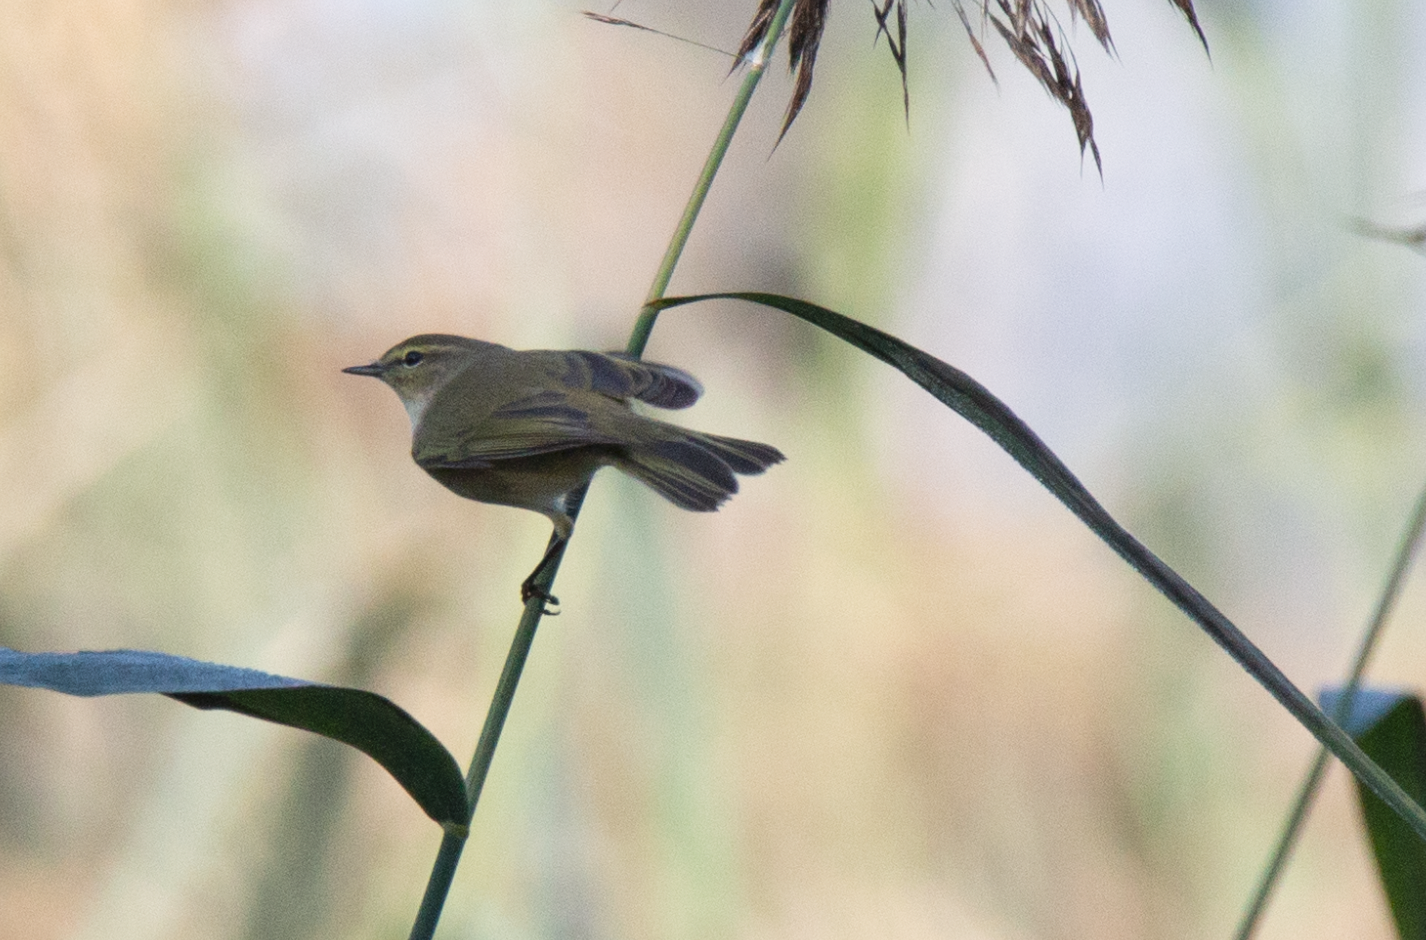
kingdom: Animalia
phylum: Chordata
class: Aves
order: Passeriformes
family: Phylloscopidae
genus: Phylloscopus
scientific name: Phylloscopus collybita
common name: Common chiffchaff
